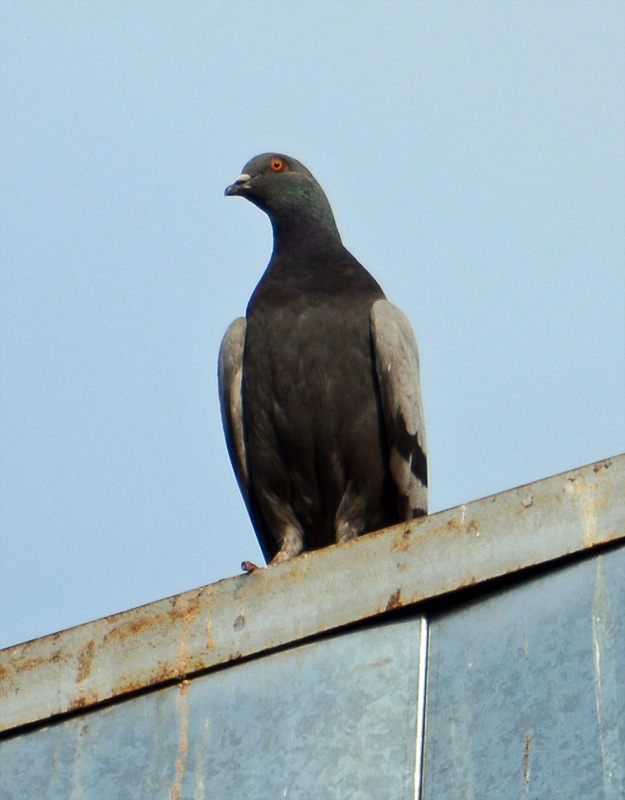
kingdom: Animalia
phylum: Chordata
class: Aves
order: Columbiformes
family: Columbidae
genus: Columba
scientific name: Columba livia
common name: Rock pigeon
